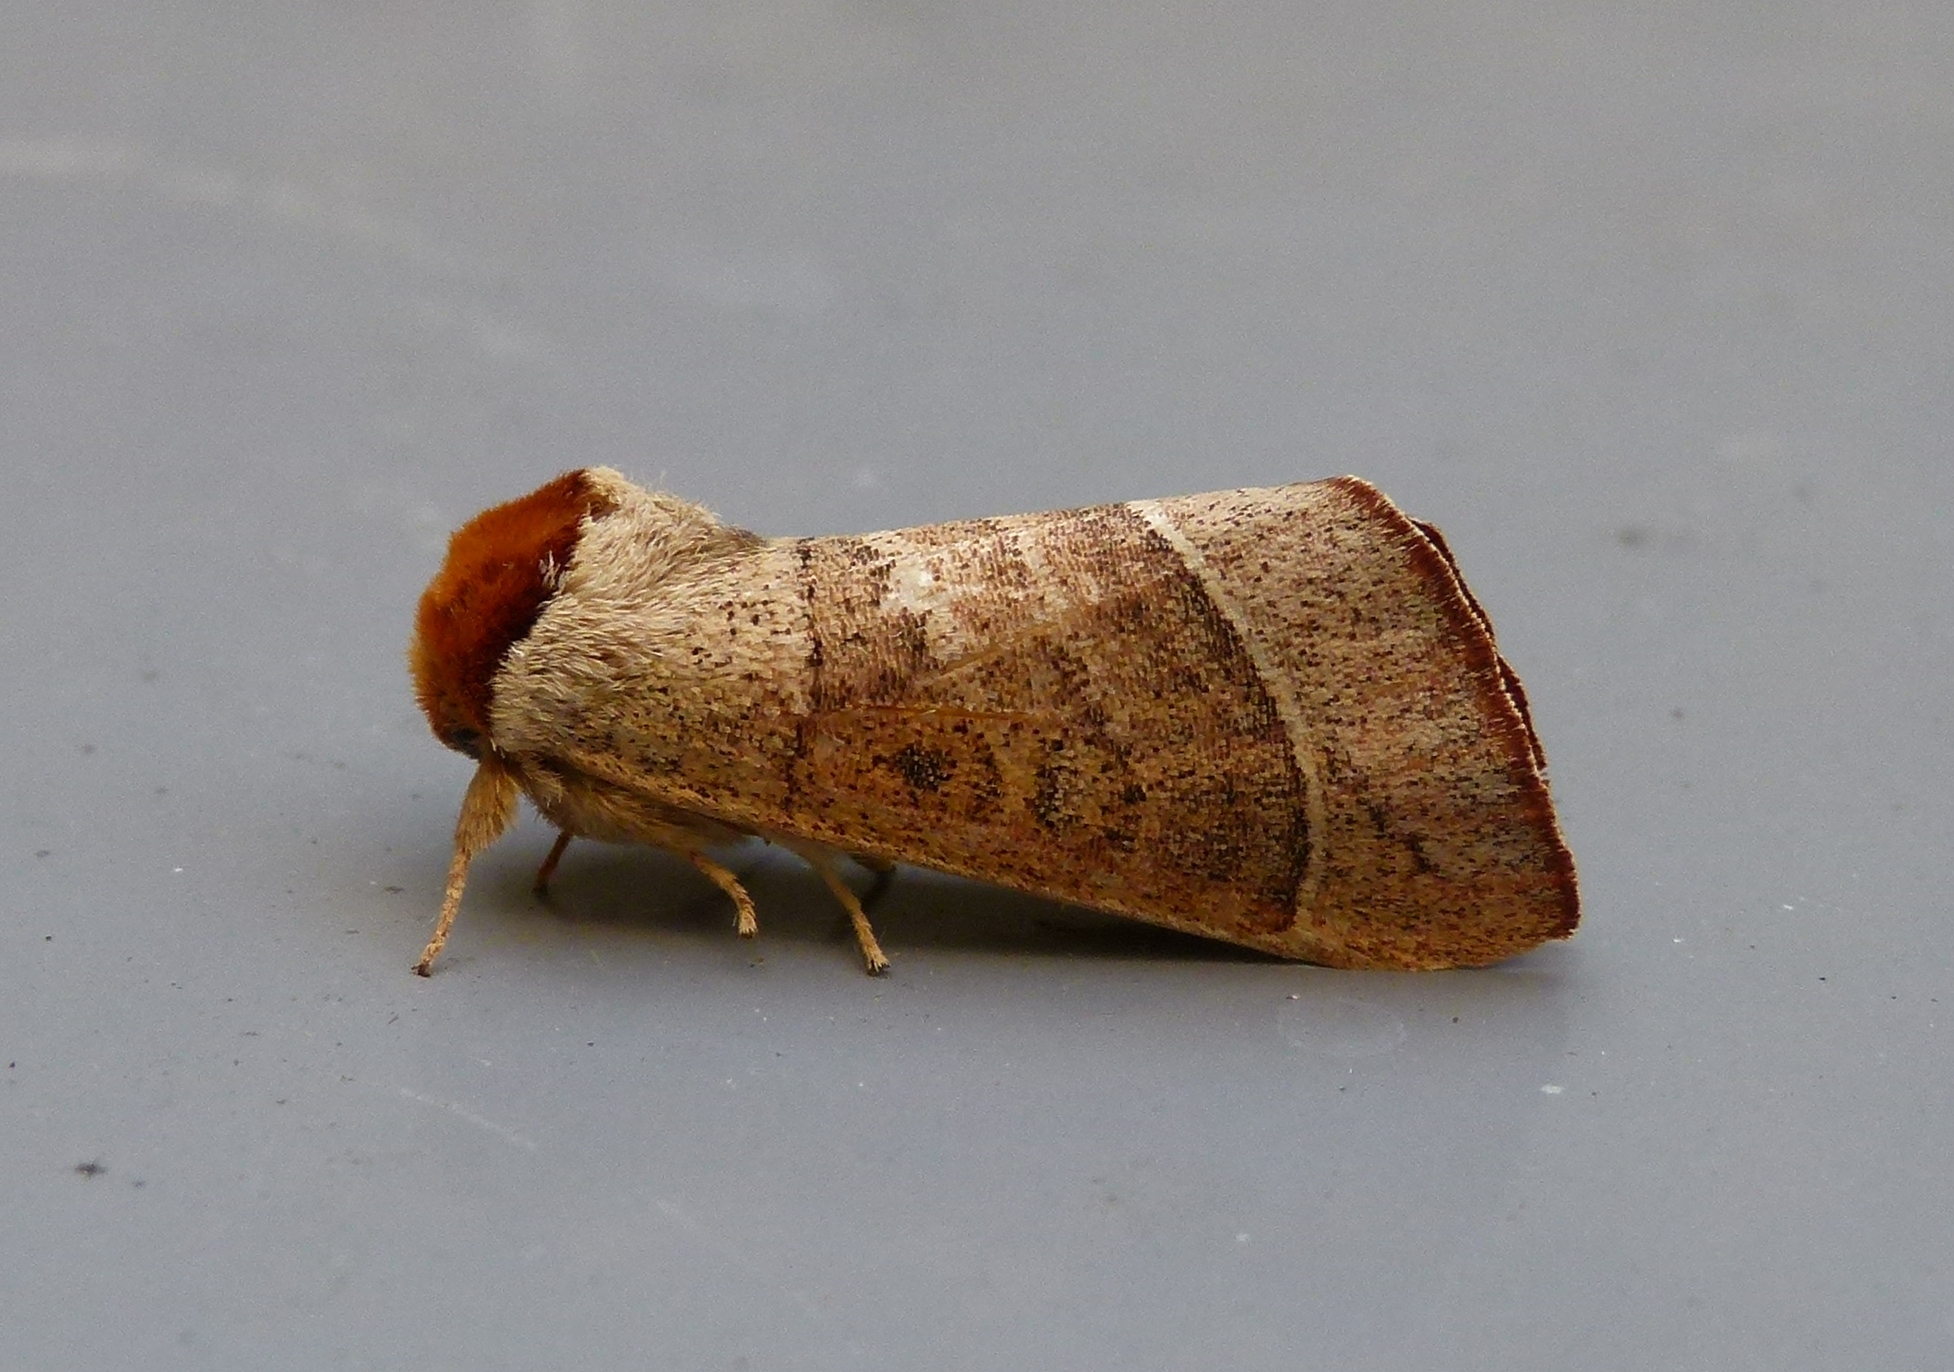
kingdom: Animalia
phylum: Arthropoda
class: Insecta
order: Lepidoptera
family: Notodontidae
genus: Datana
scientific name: Datana contracta
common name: Contracted datana
